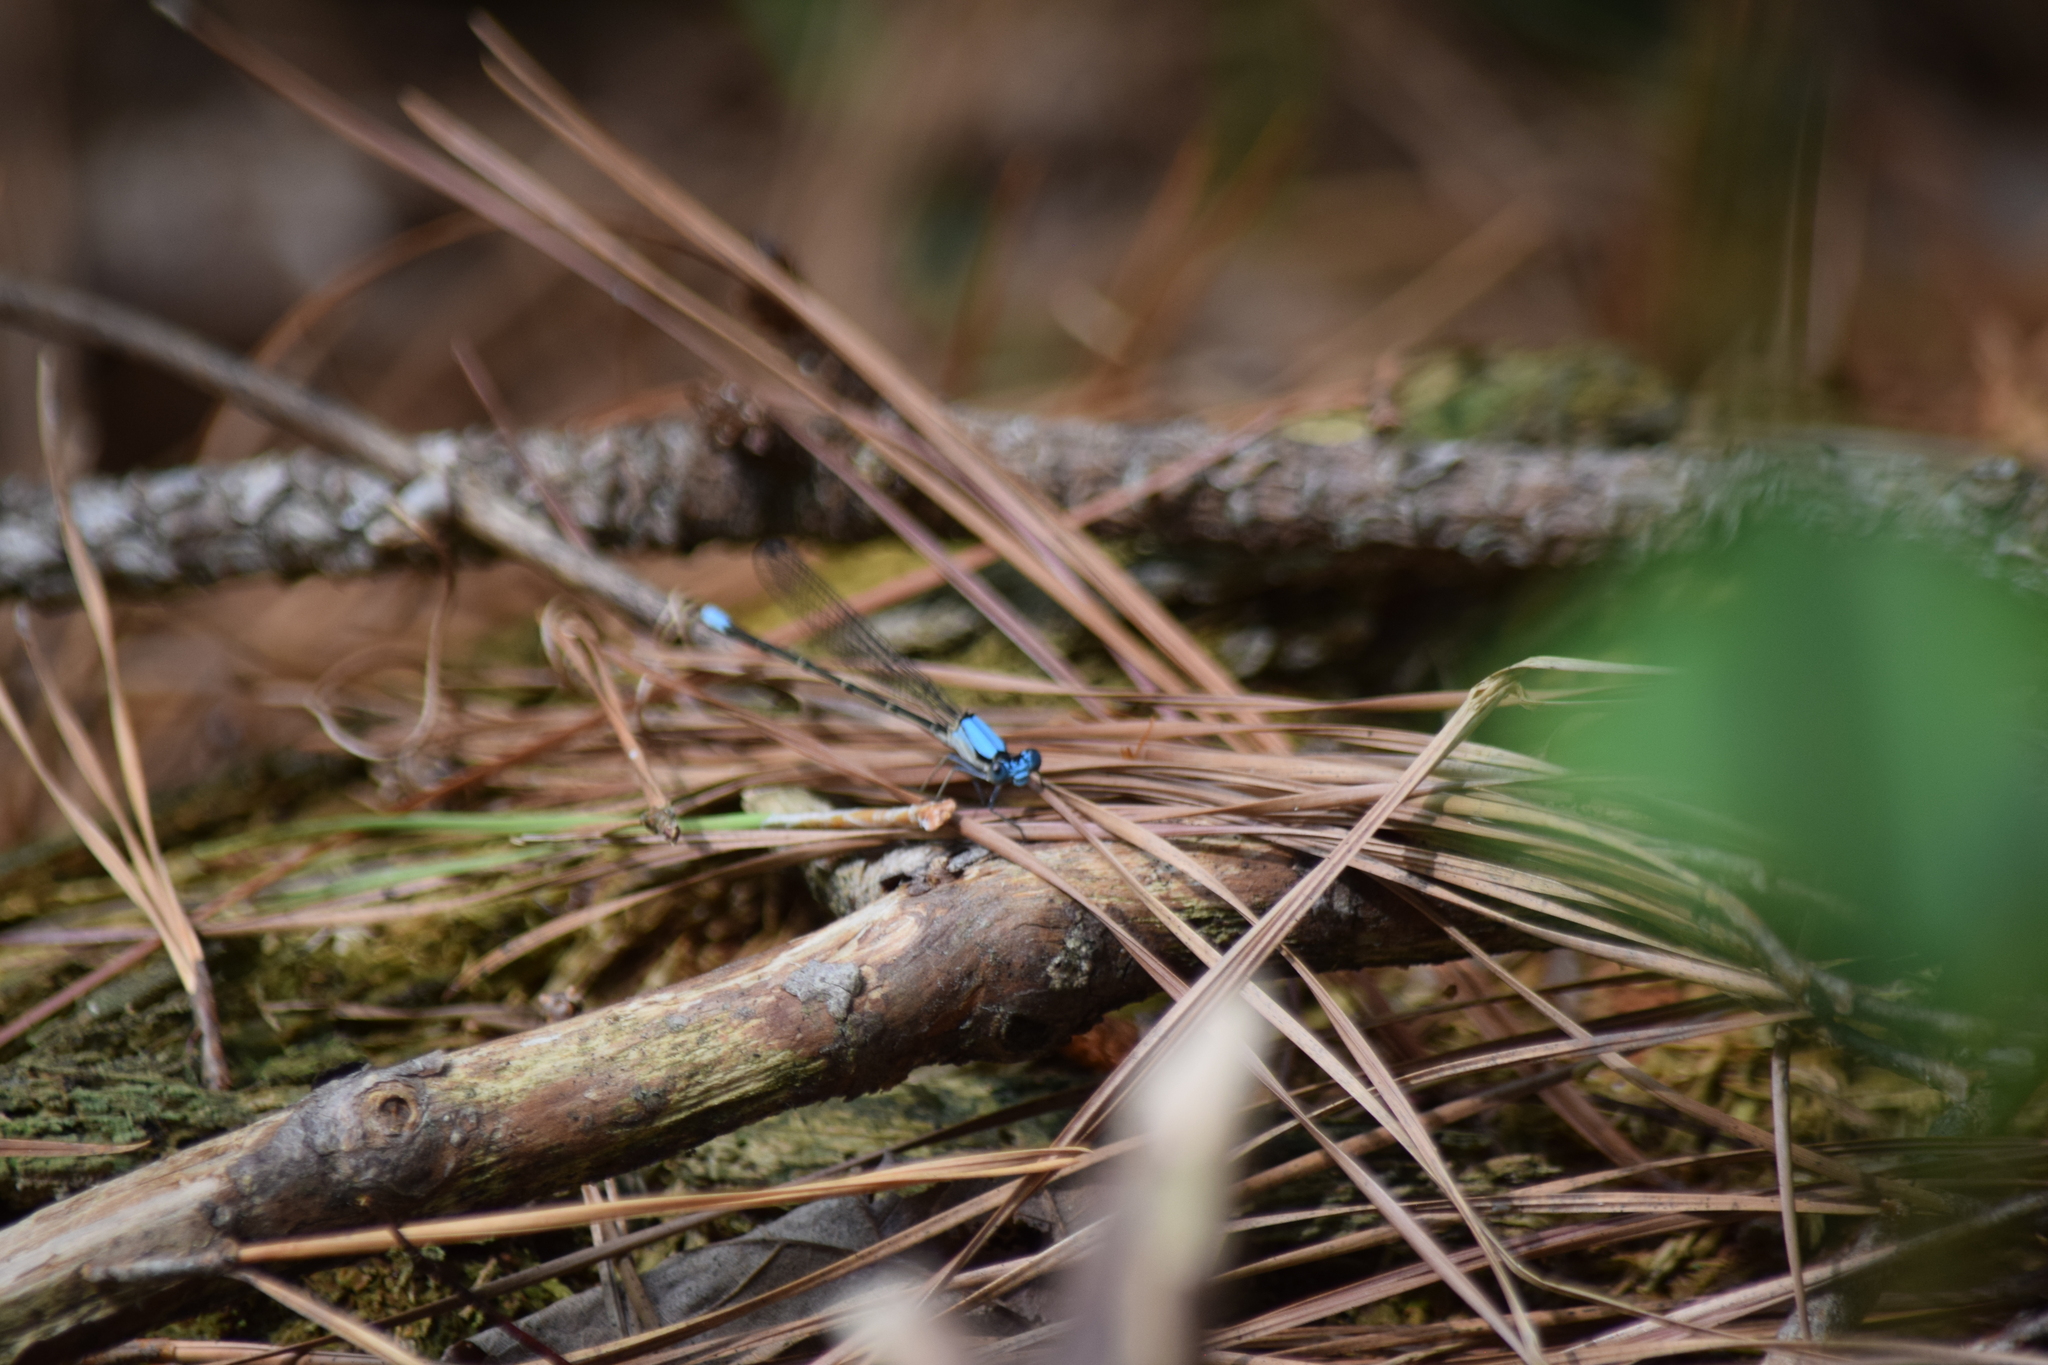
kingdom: Animalia
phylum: Arthropoda
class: Insecta
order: Odonata
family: Coenagrionidae
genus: Argia
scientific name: Argia apicalis
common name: Blue-fronted dancer
